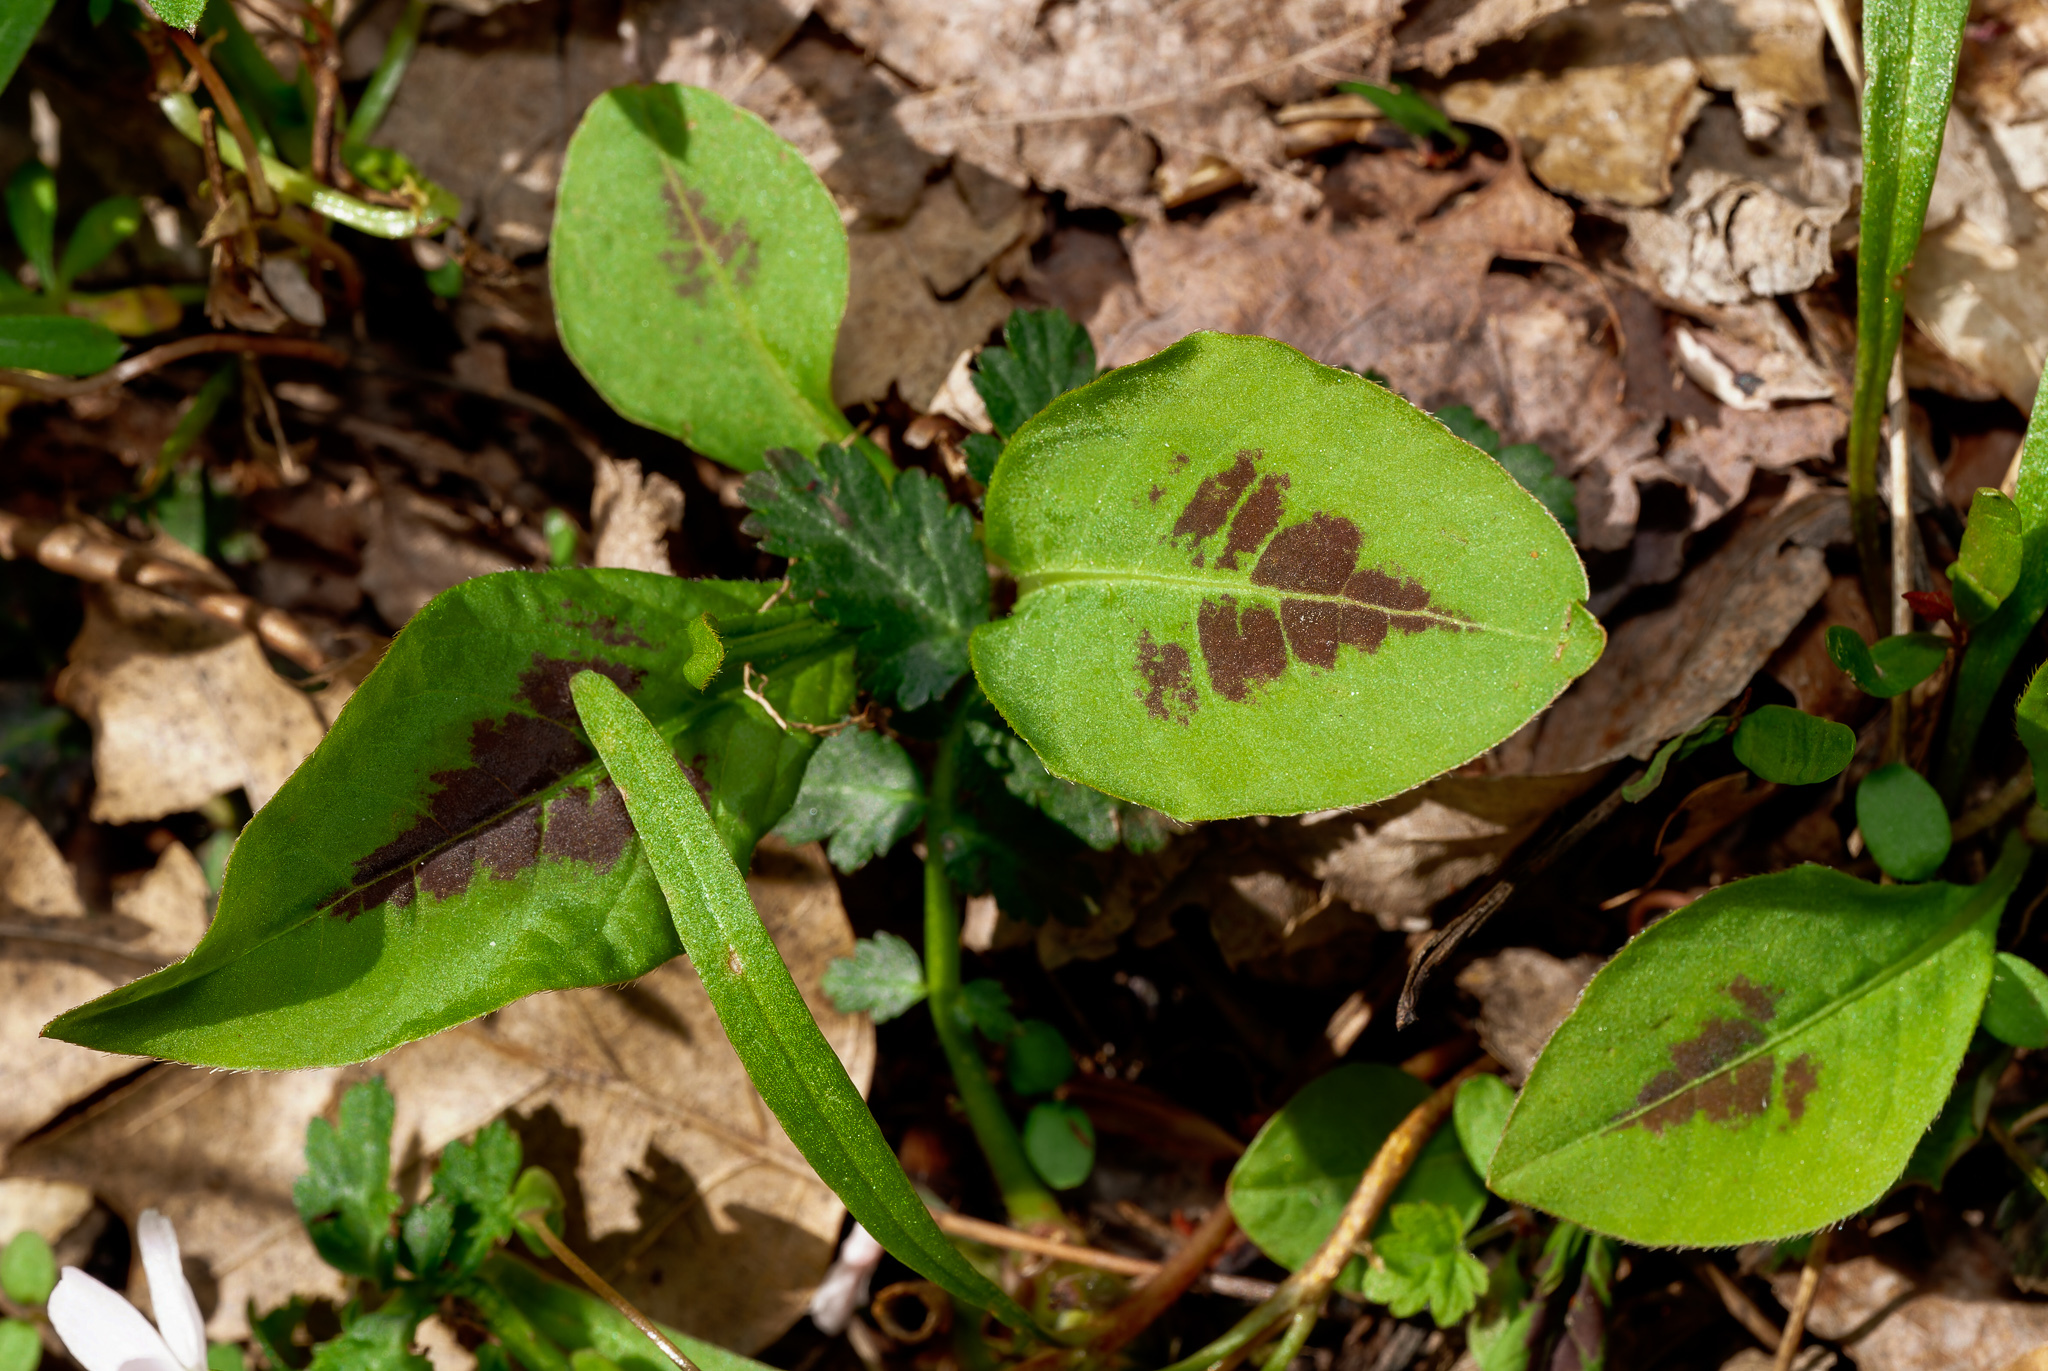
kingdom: Plantae
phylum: Tracheophyta
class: Magnoliopsida
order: Caryophyllales
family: Polygonaceae
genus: Persicaria
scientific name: Persicaria virginiana
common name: Jumpseed
